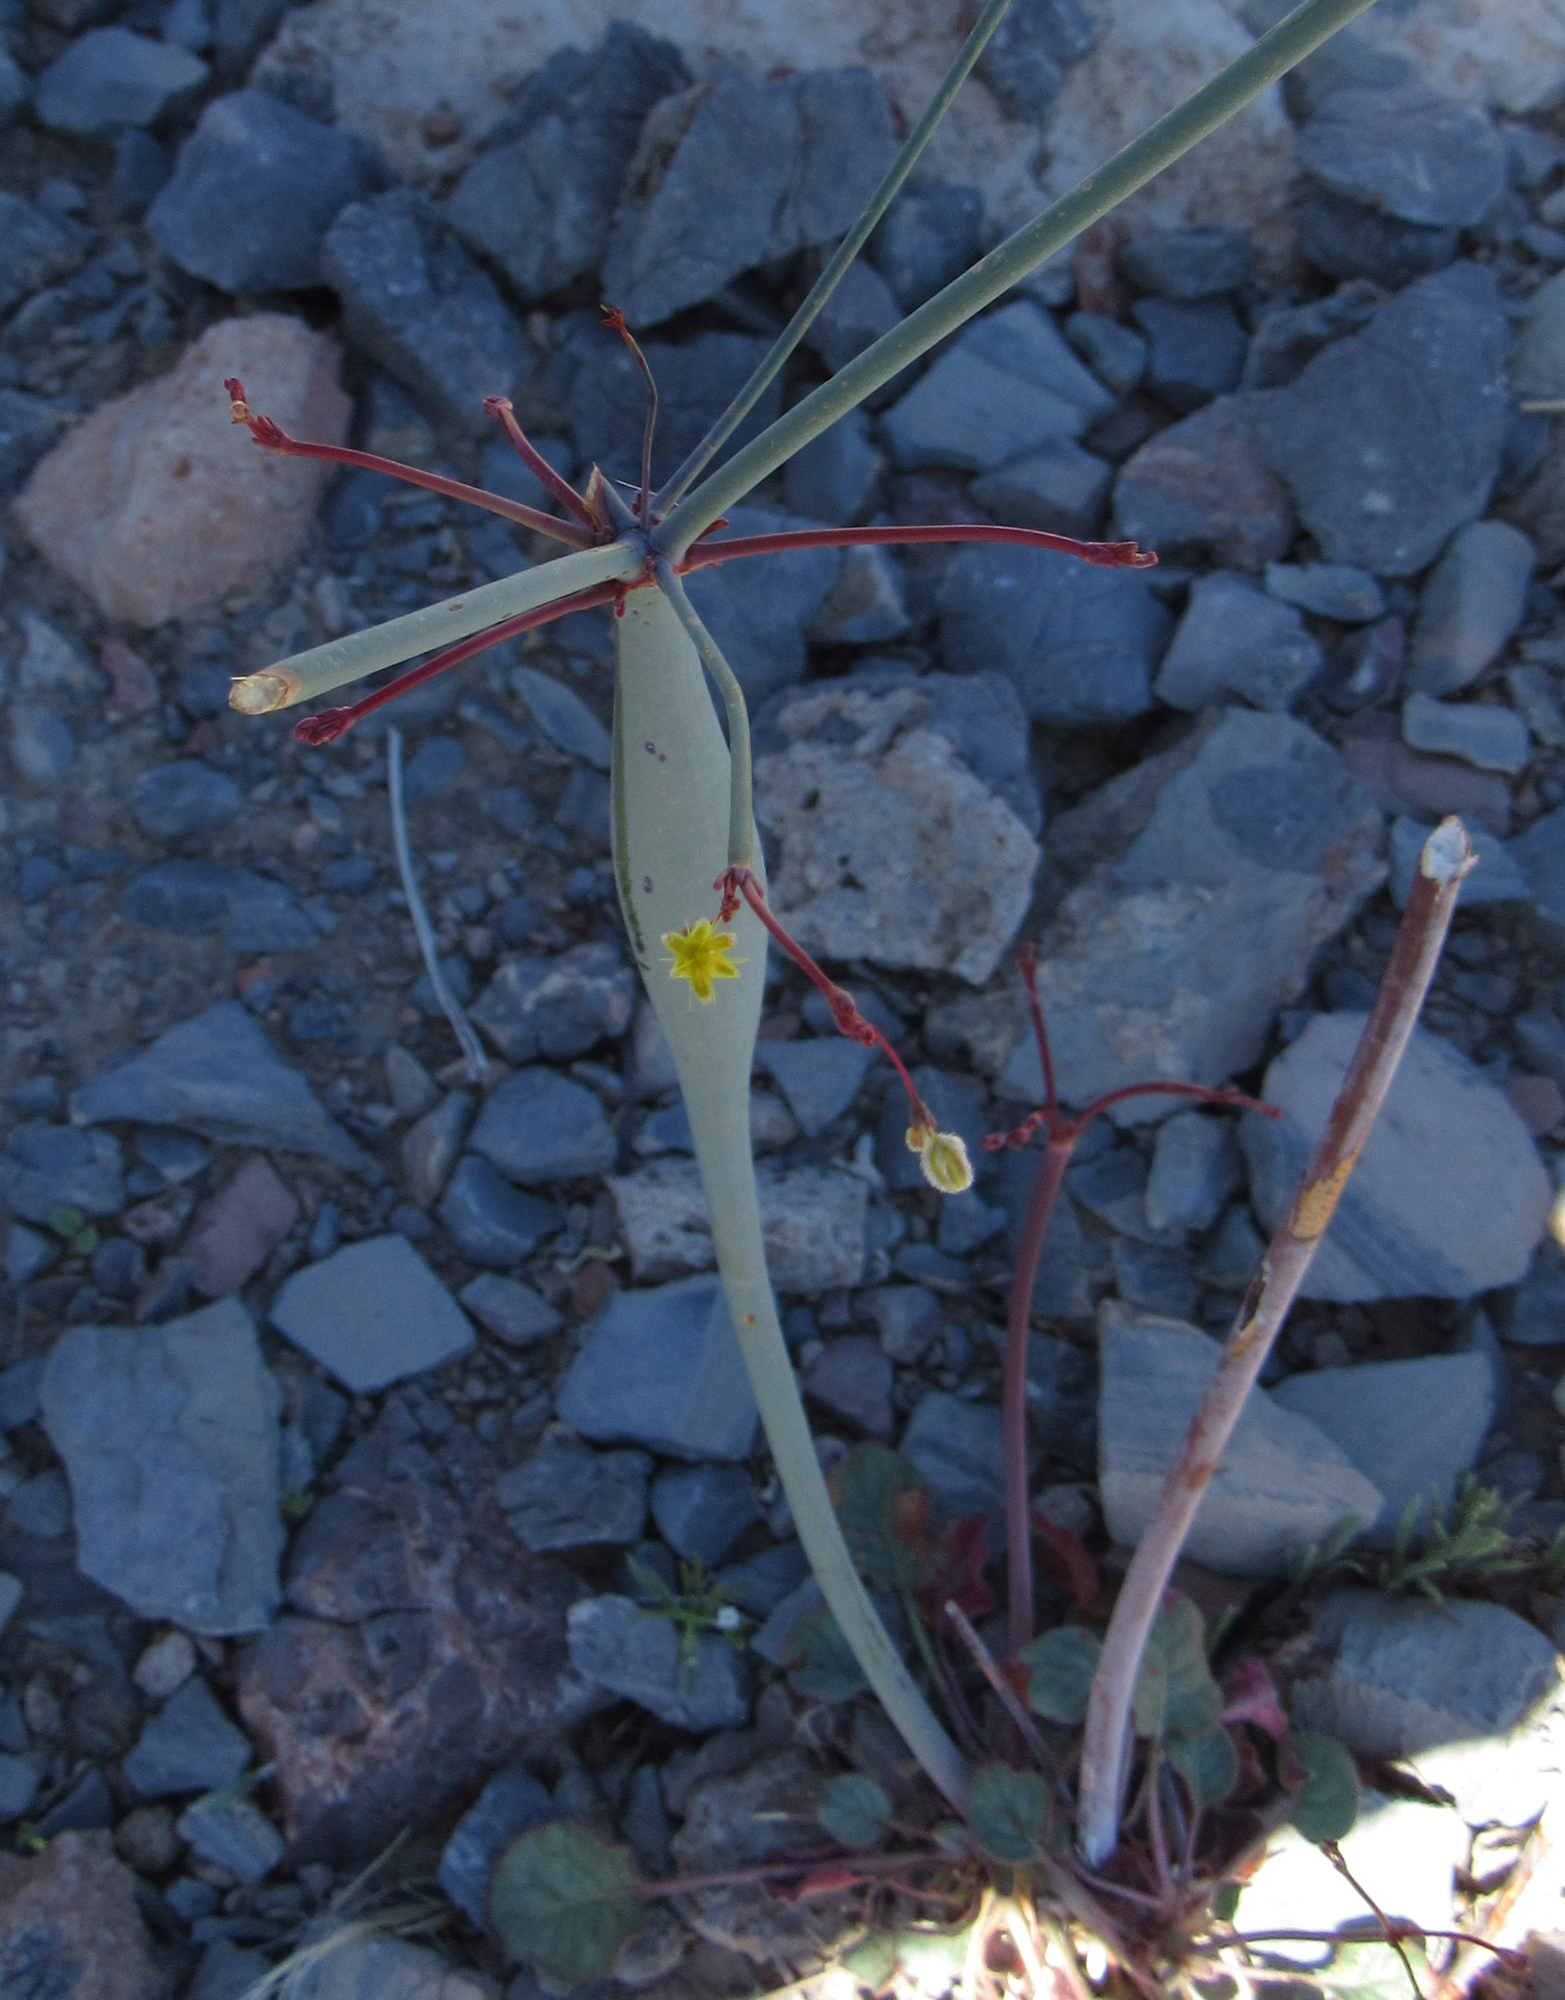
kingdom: Plantae
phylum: Tracheophyta
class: Magnoliopsida
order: Caryophyllales
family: Polygonaceae
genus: Eriogonum
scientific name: Eriogonum inflatum
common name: Desert trumpet
